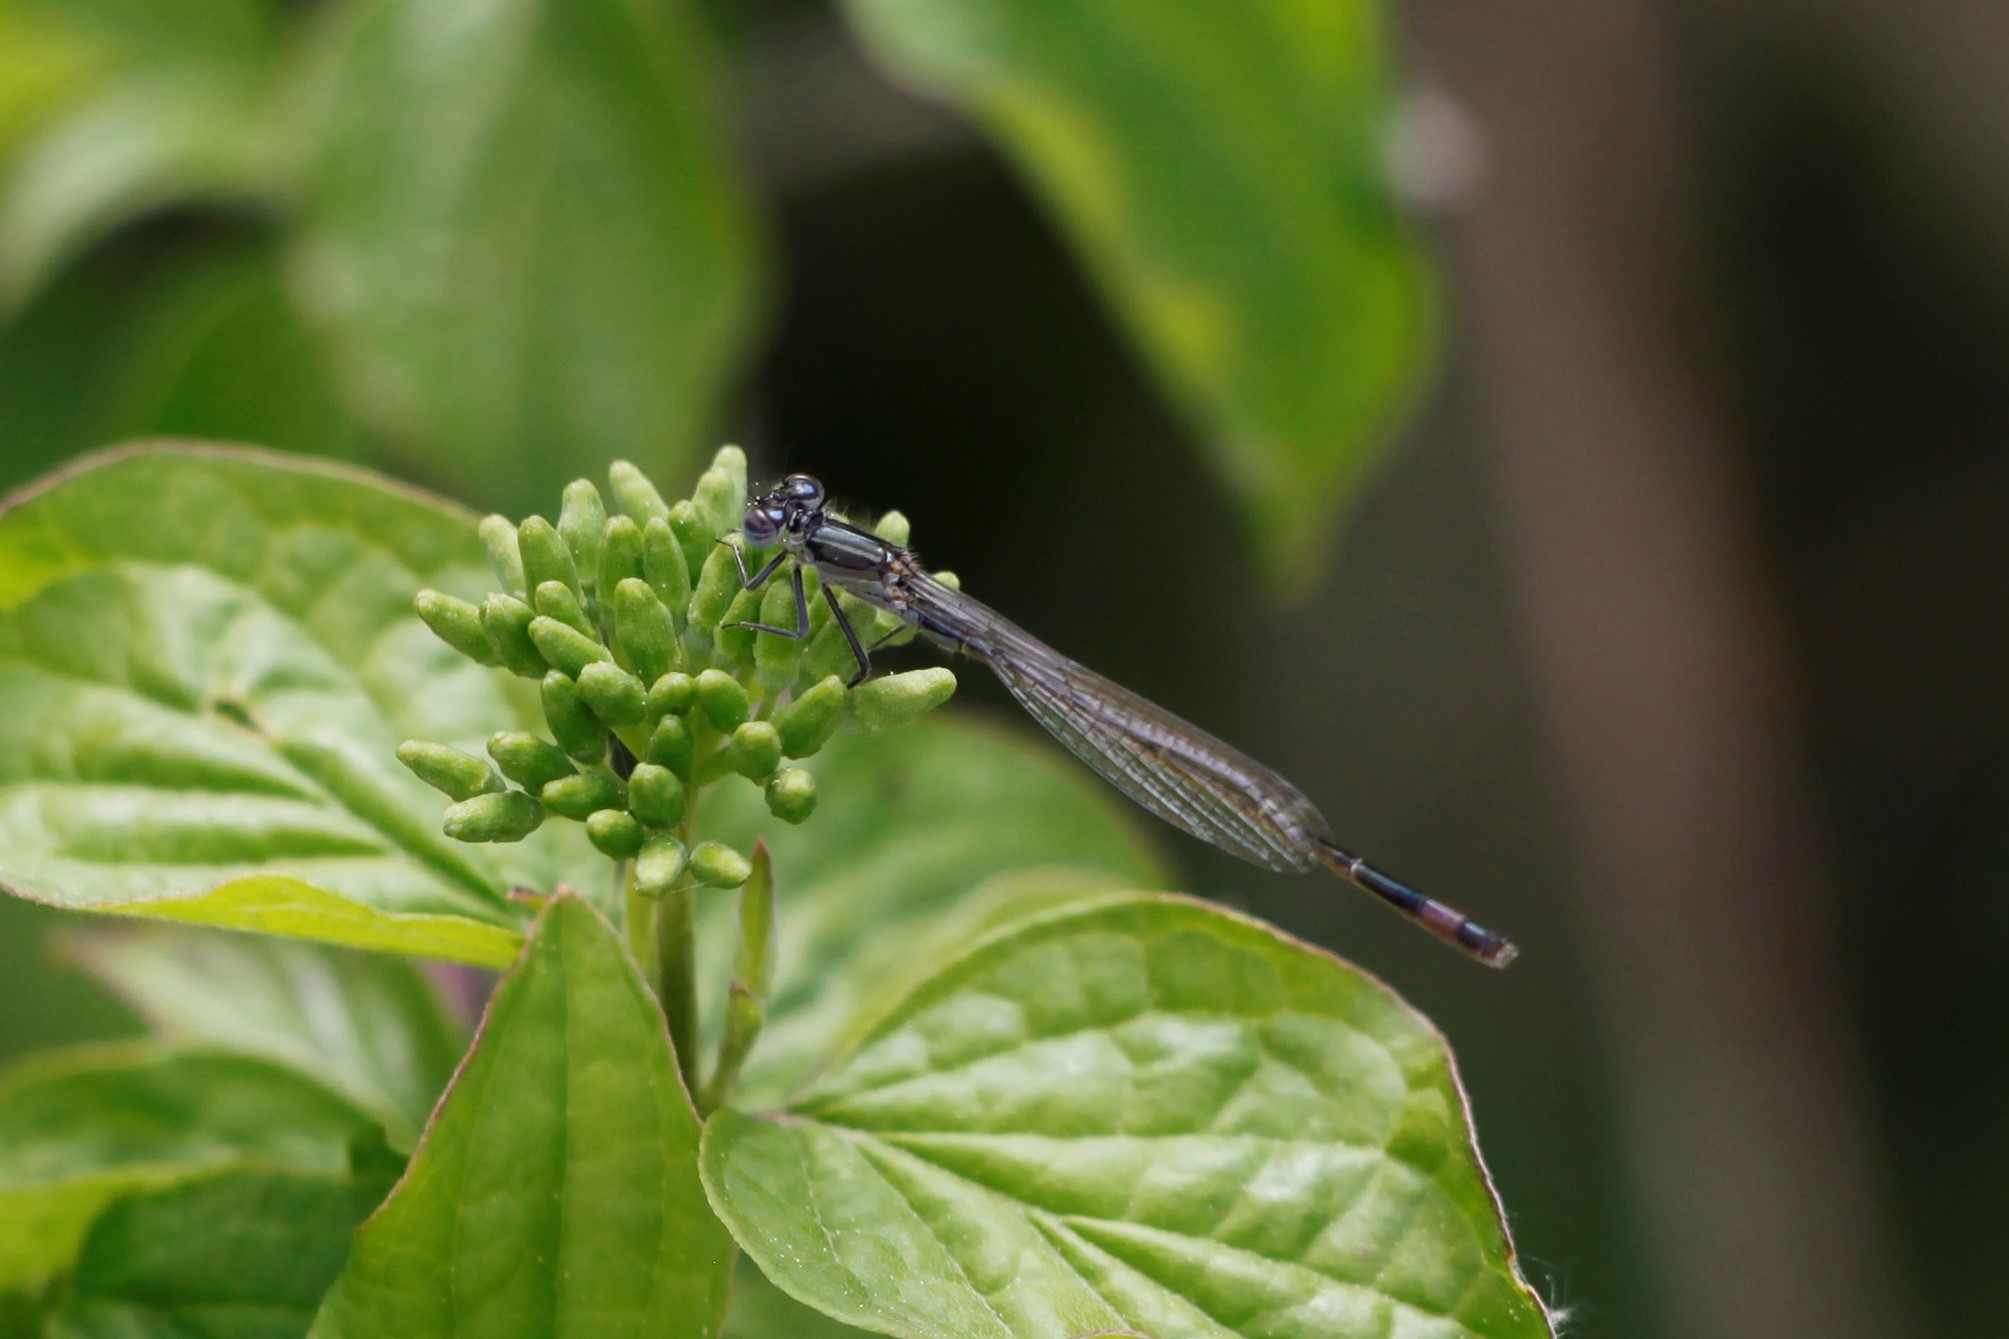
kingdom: Animalia
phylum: Arthropoda
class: Insecta
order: Odonata
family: Coenagrionidae
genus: Ischnura
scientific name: Ischnura elegans
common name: Blue-tailed damselfly
